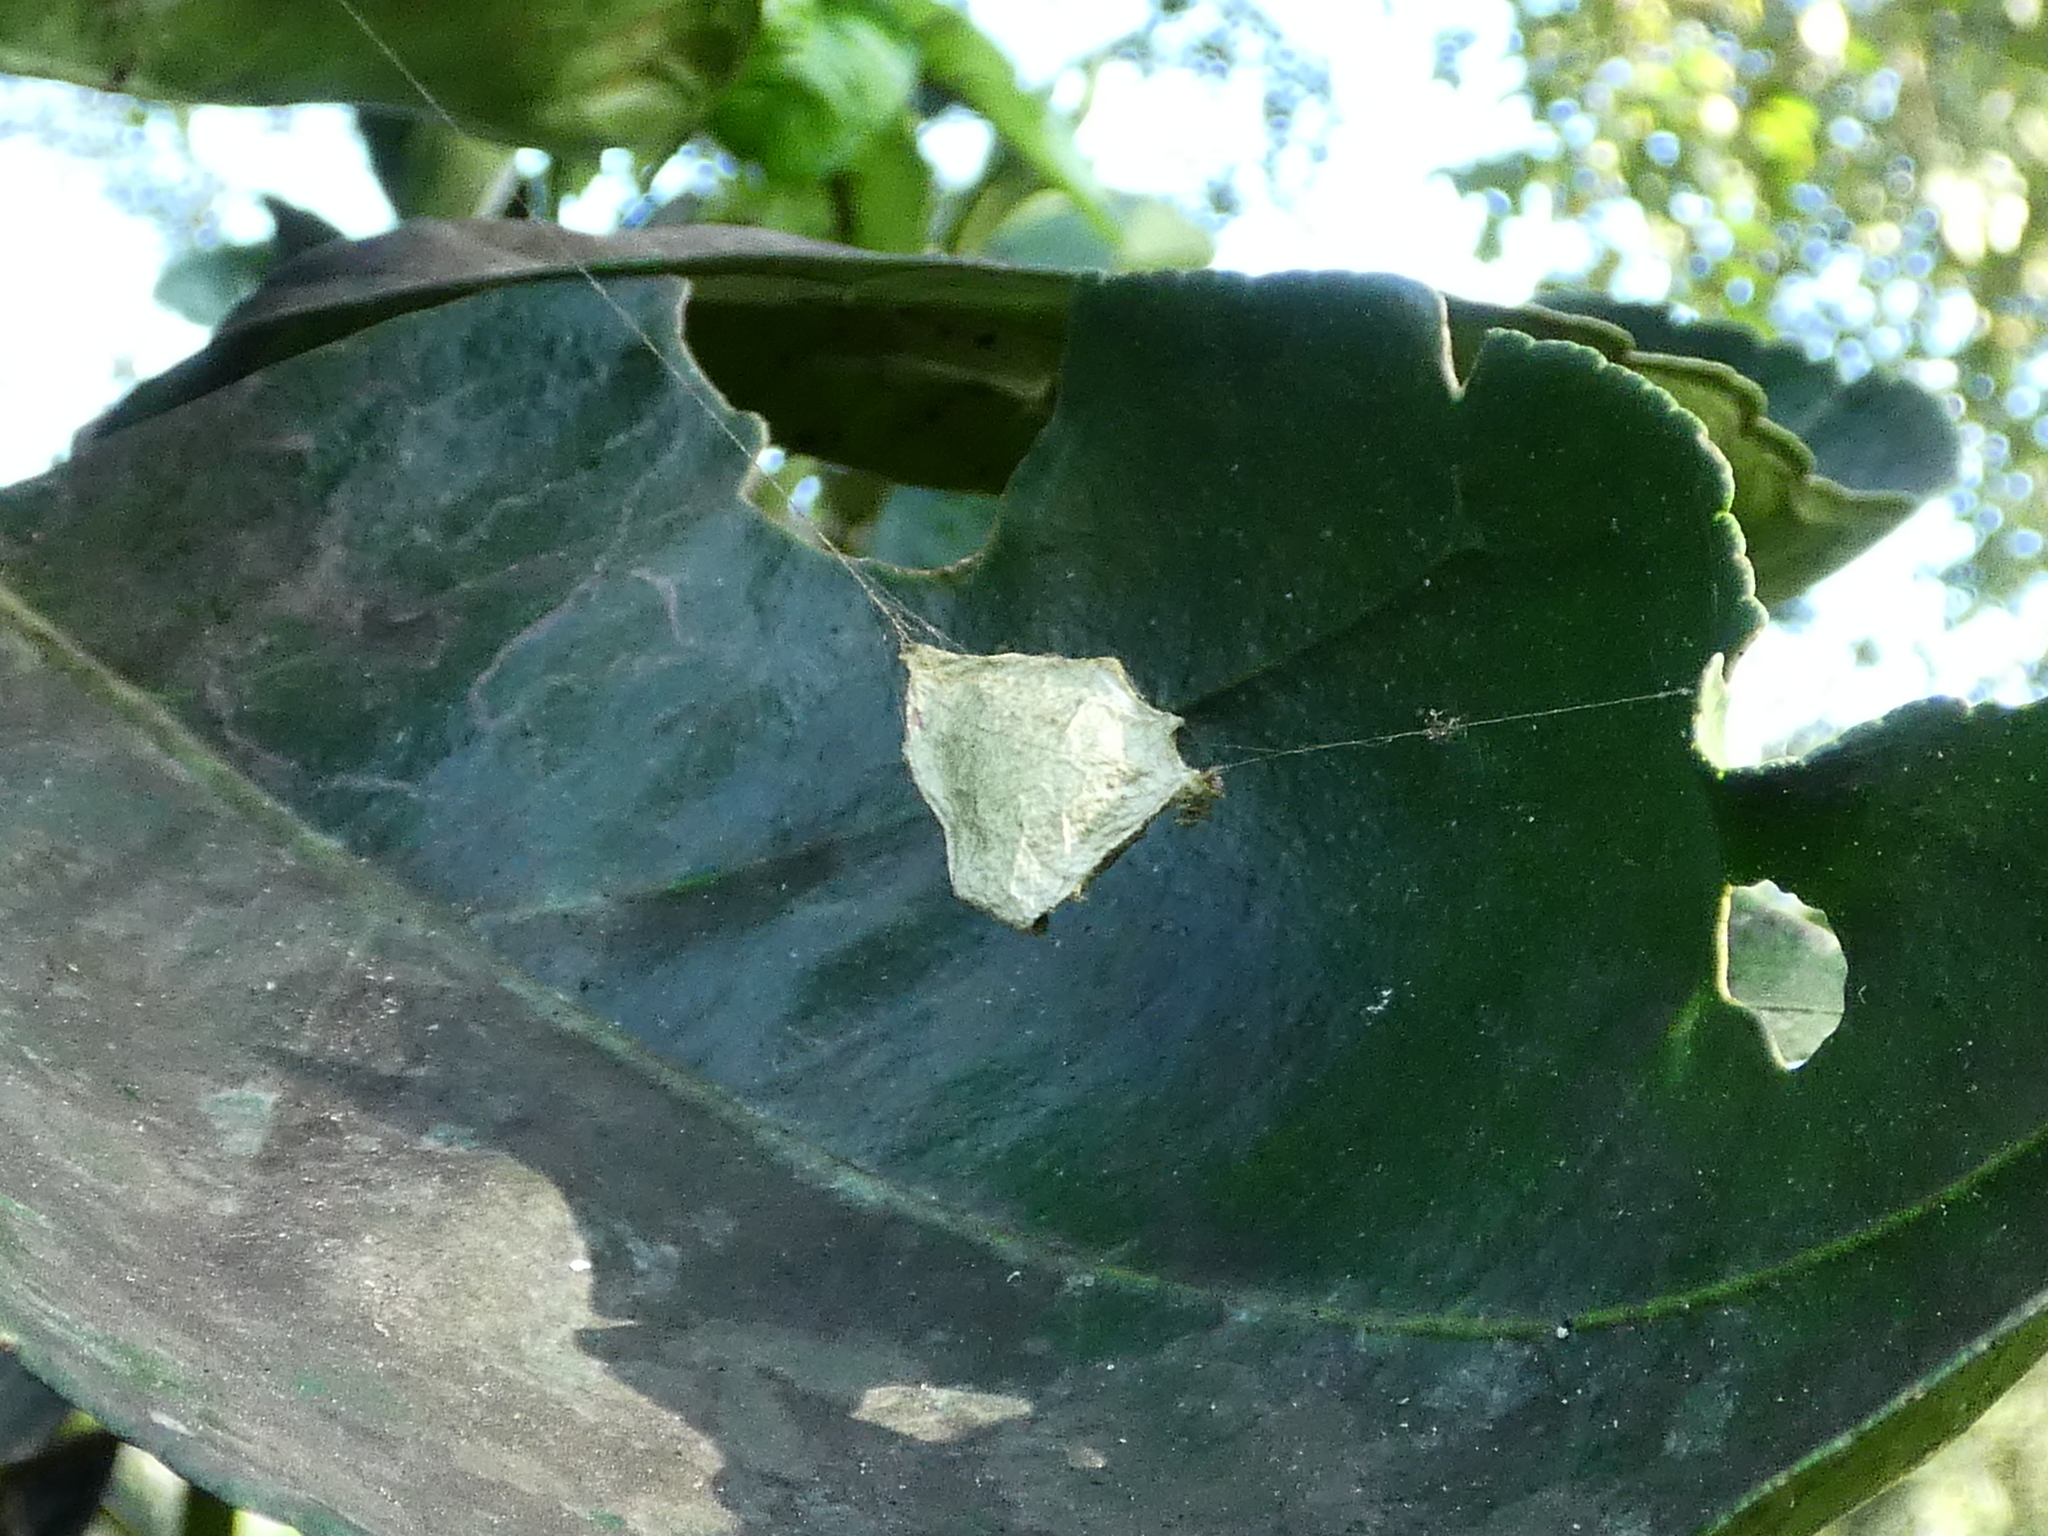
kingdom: Animalia
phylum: Arthropoda
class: Arachnida
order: Araneae
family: Araneidae
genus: Argiope
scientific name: Argiope argentata
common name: Orb weavers
